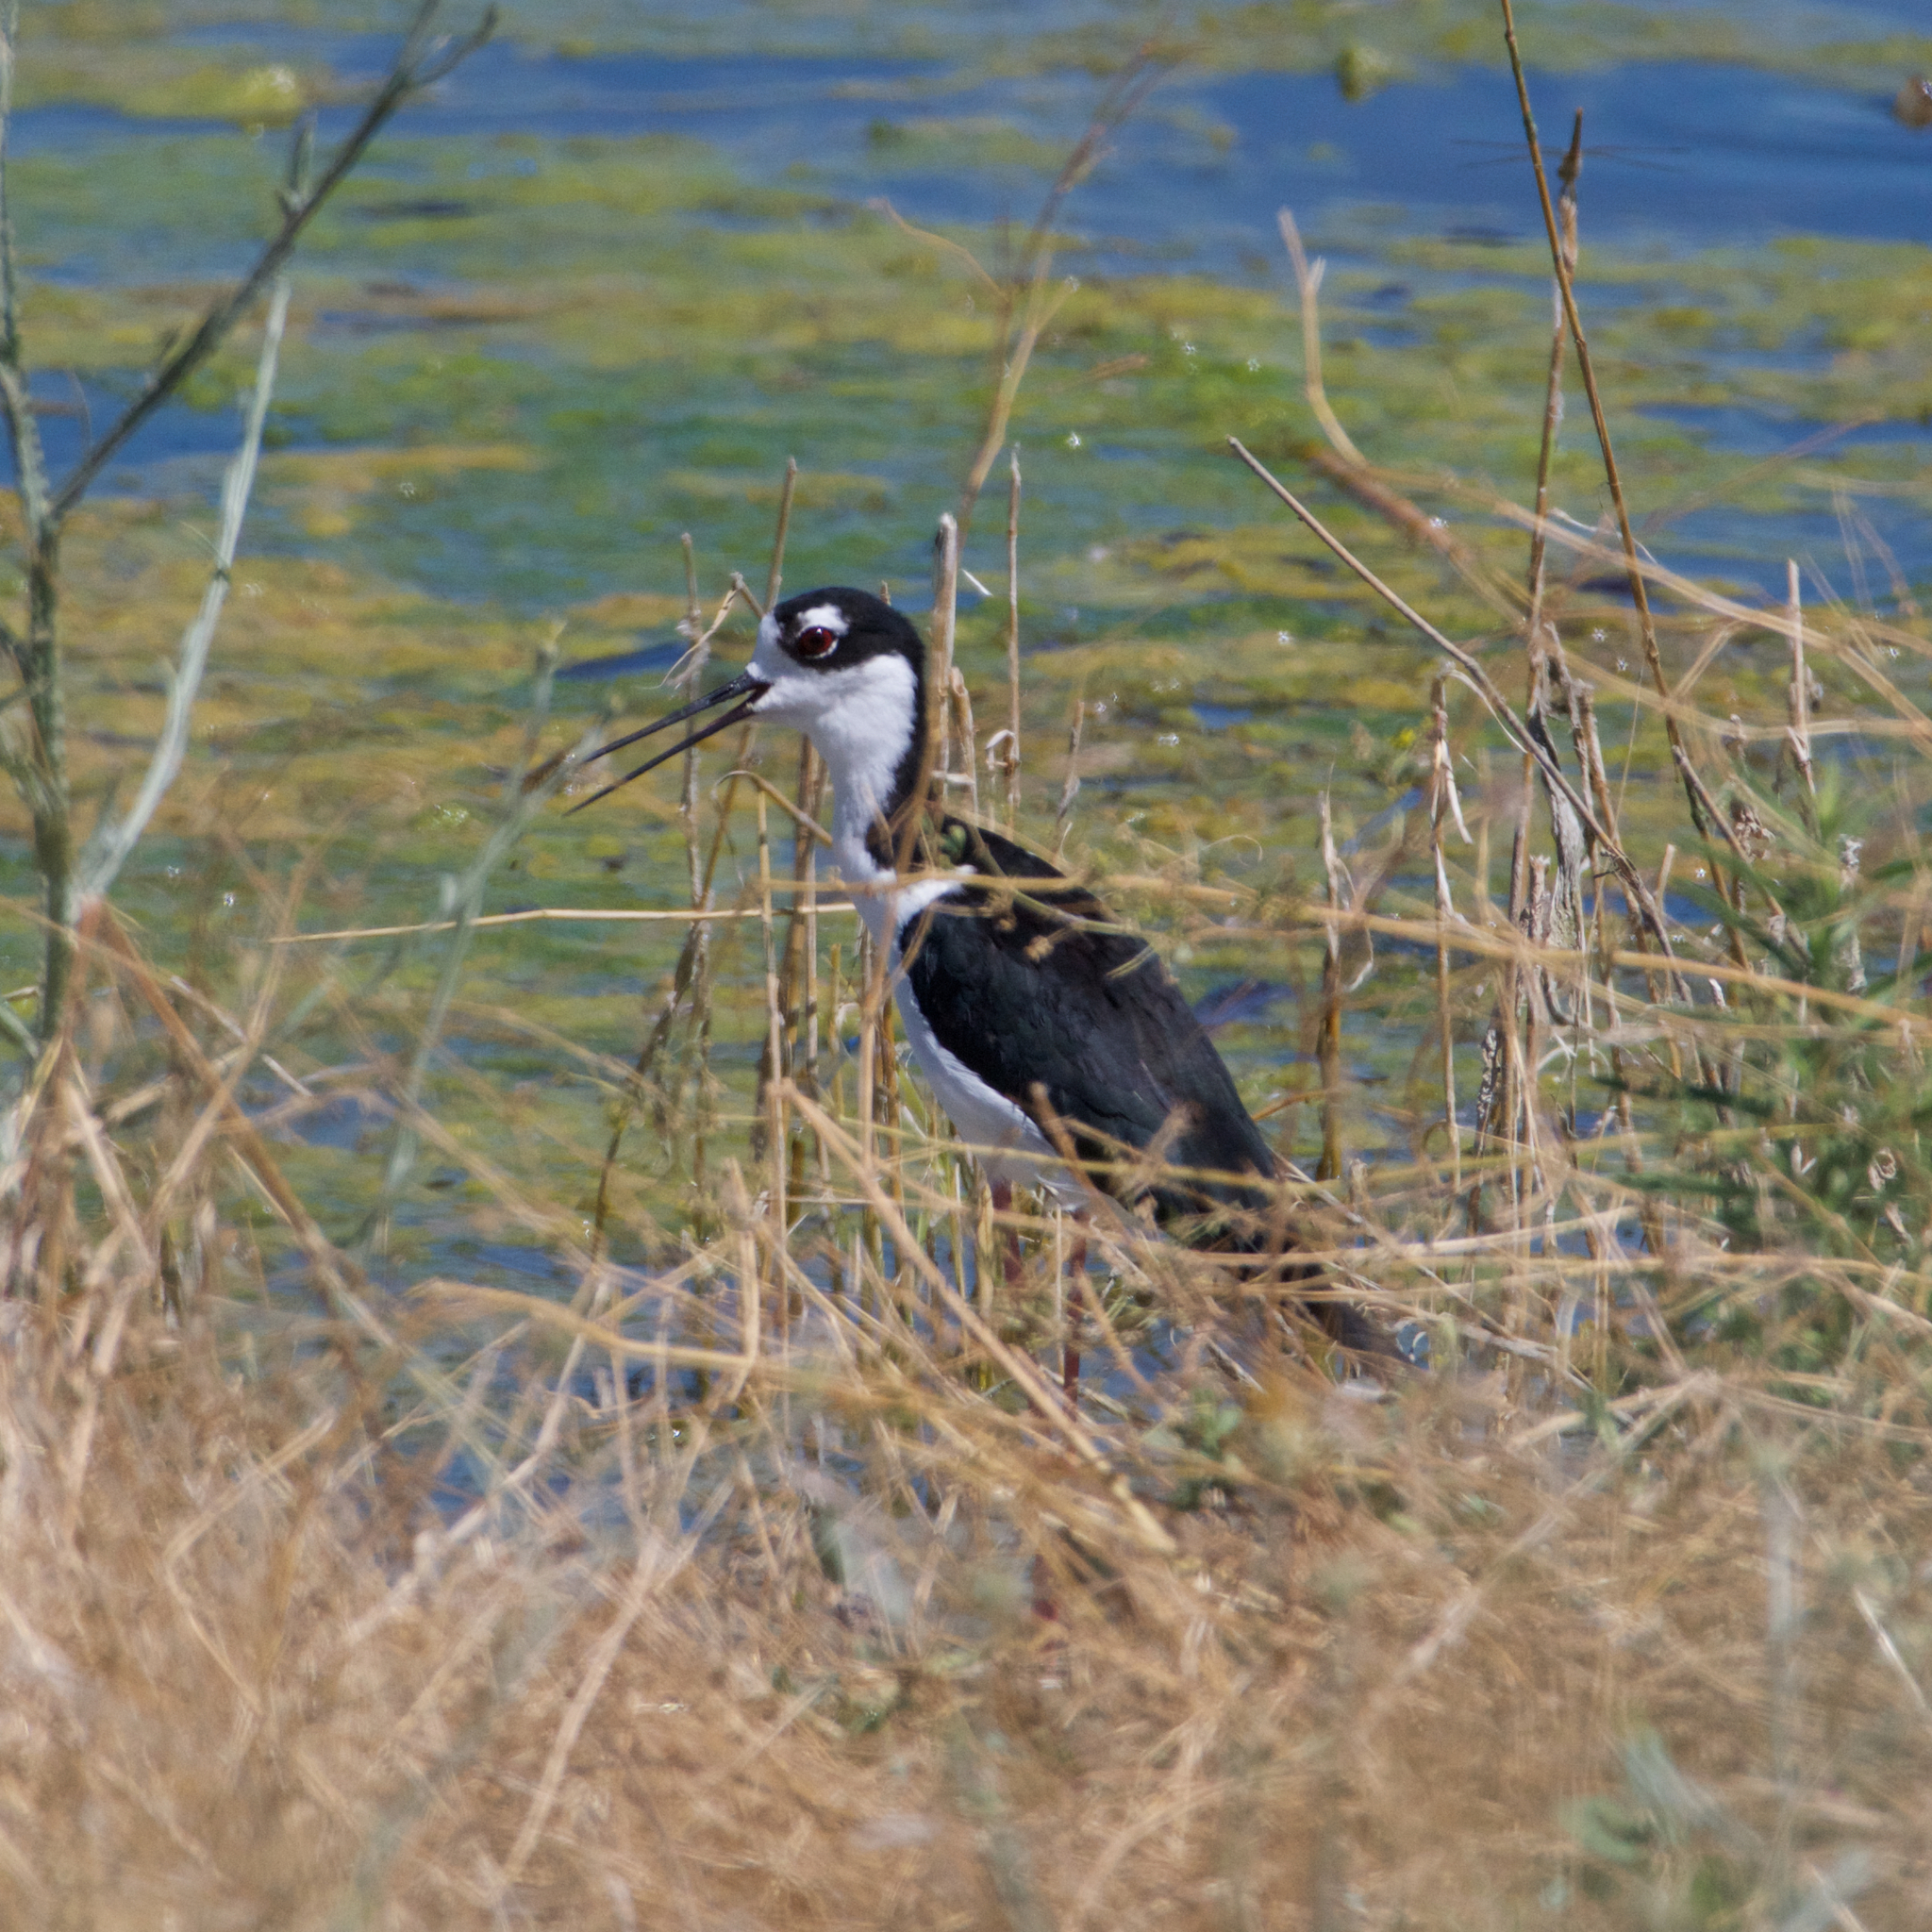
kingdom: Animalia
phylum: Chordata
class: Aves
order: Charadriiformes
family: Recurvirostridae
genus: Himantopus
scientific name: Himantopus mexicanus
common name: Black-necked stilt
